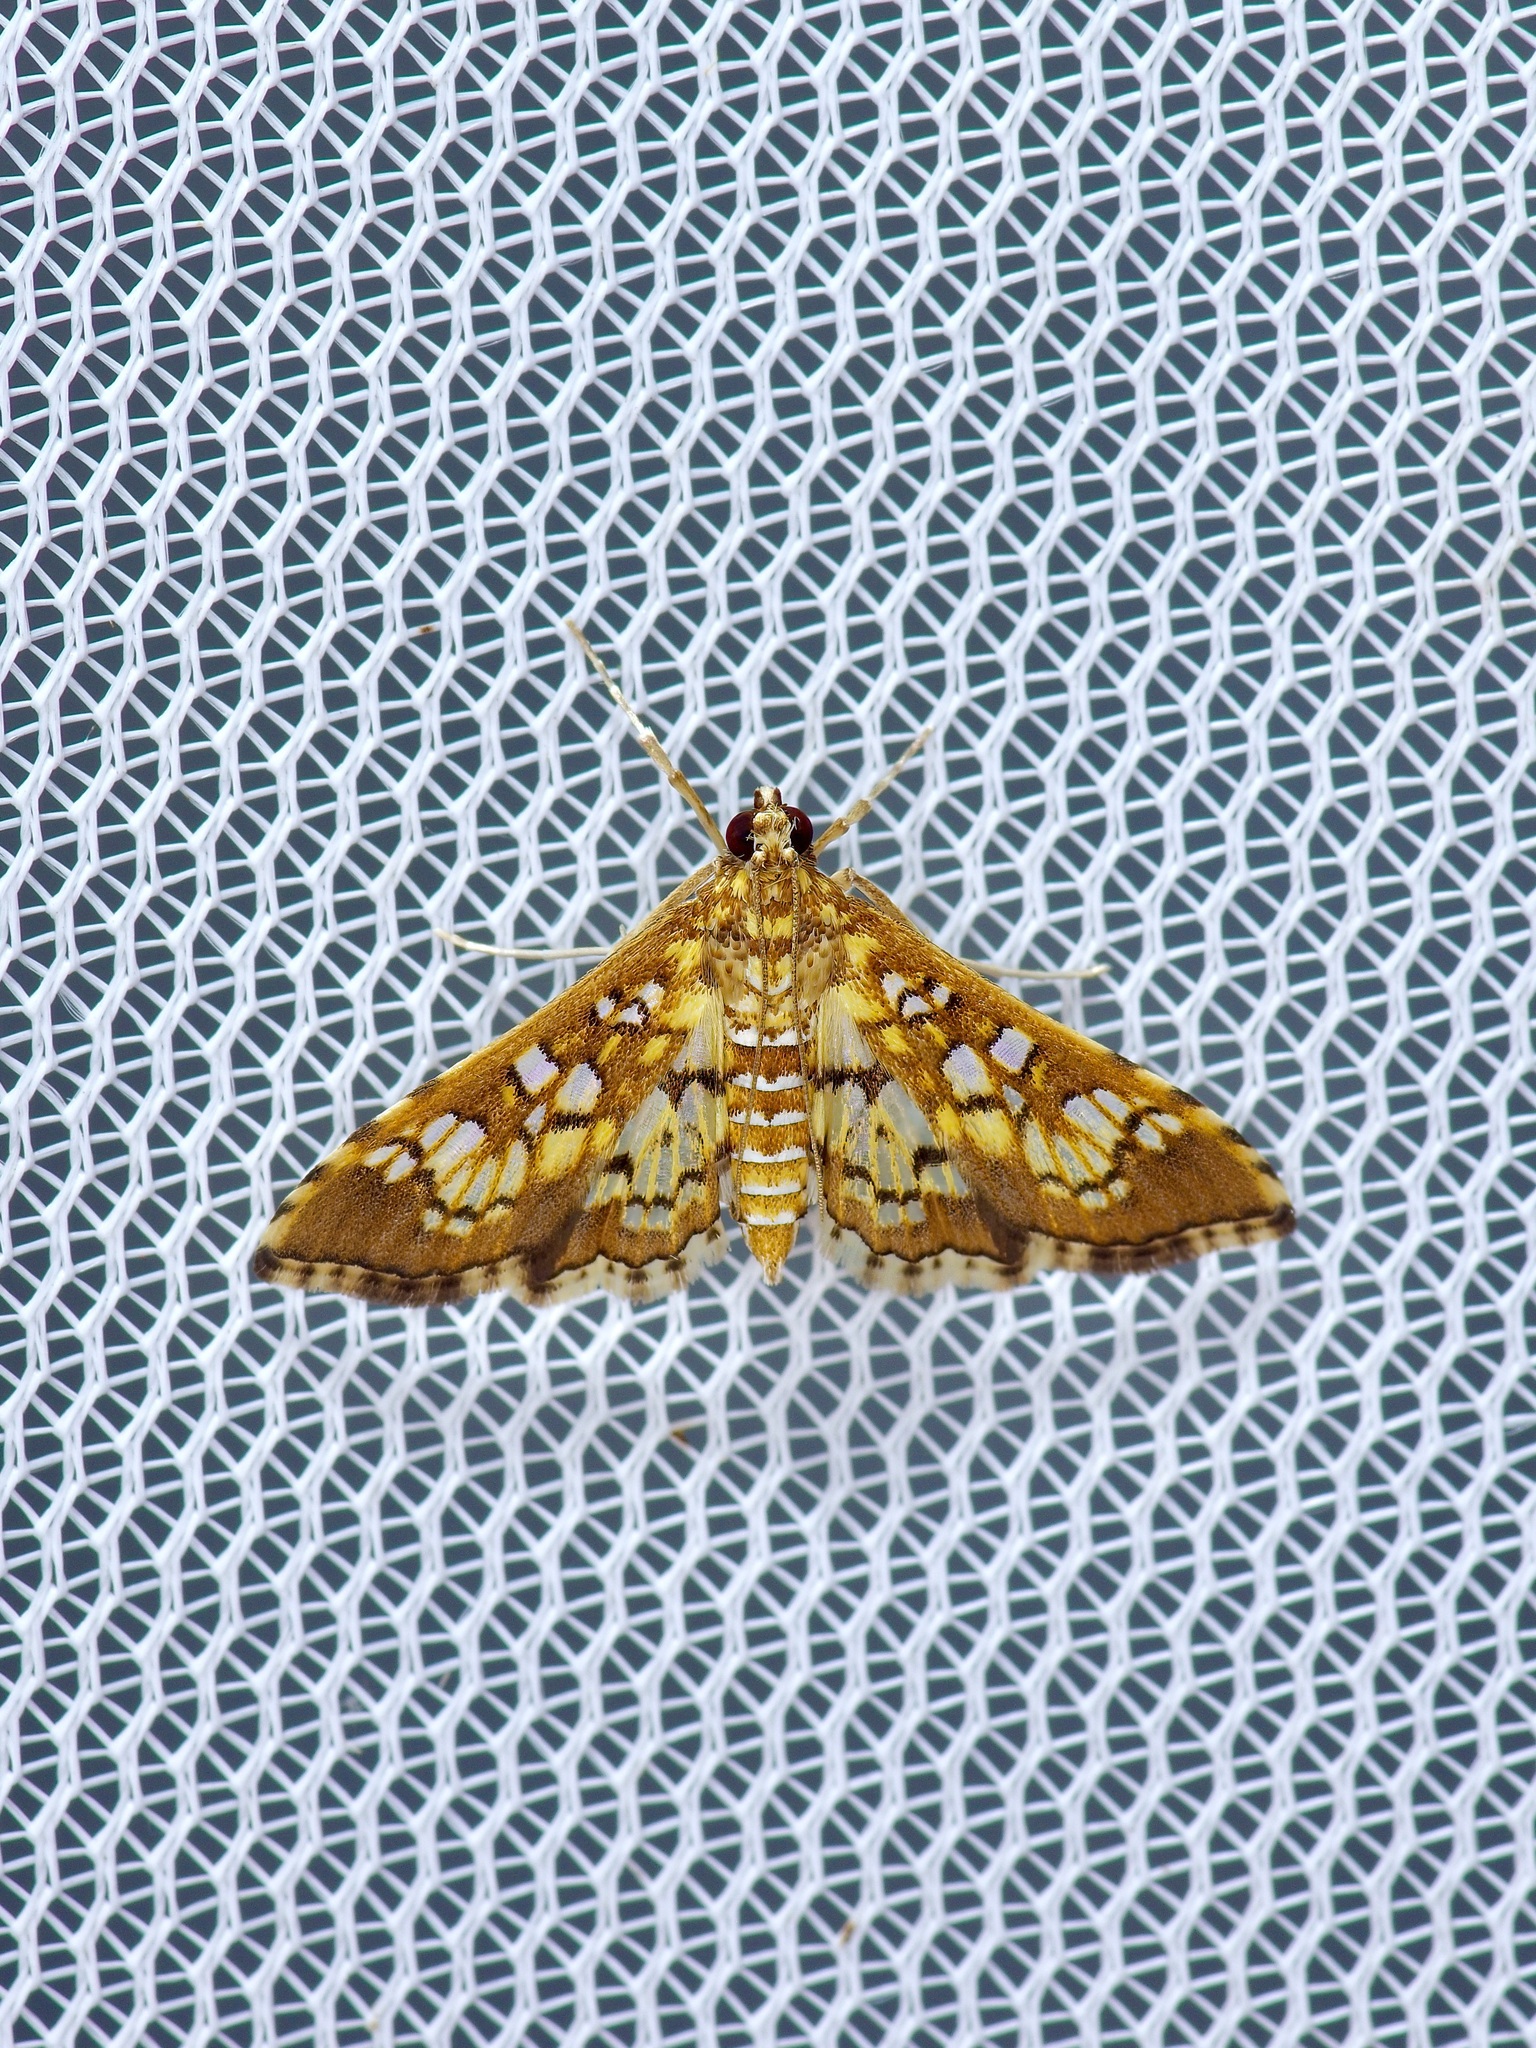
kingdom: Animalia
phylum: Arthropoda
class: Insecta
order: Lepidoptera
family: Crambidae
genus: Samea
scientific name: Samea ecclesialis
